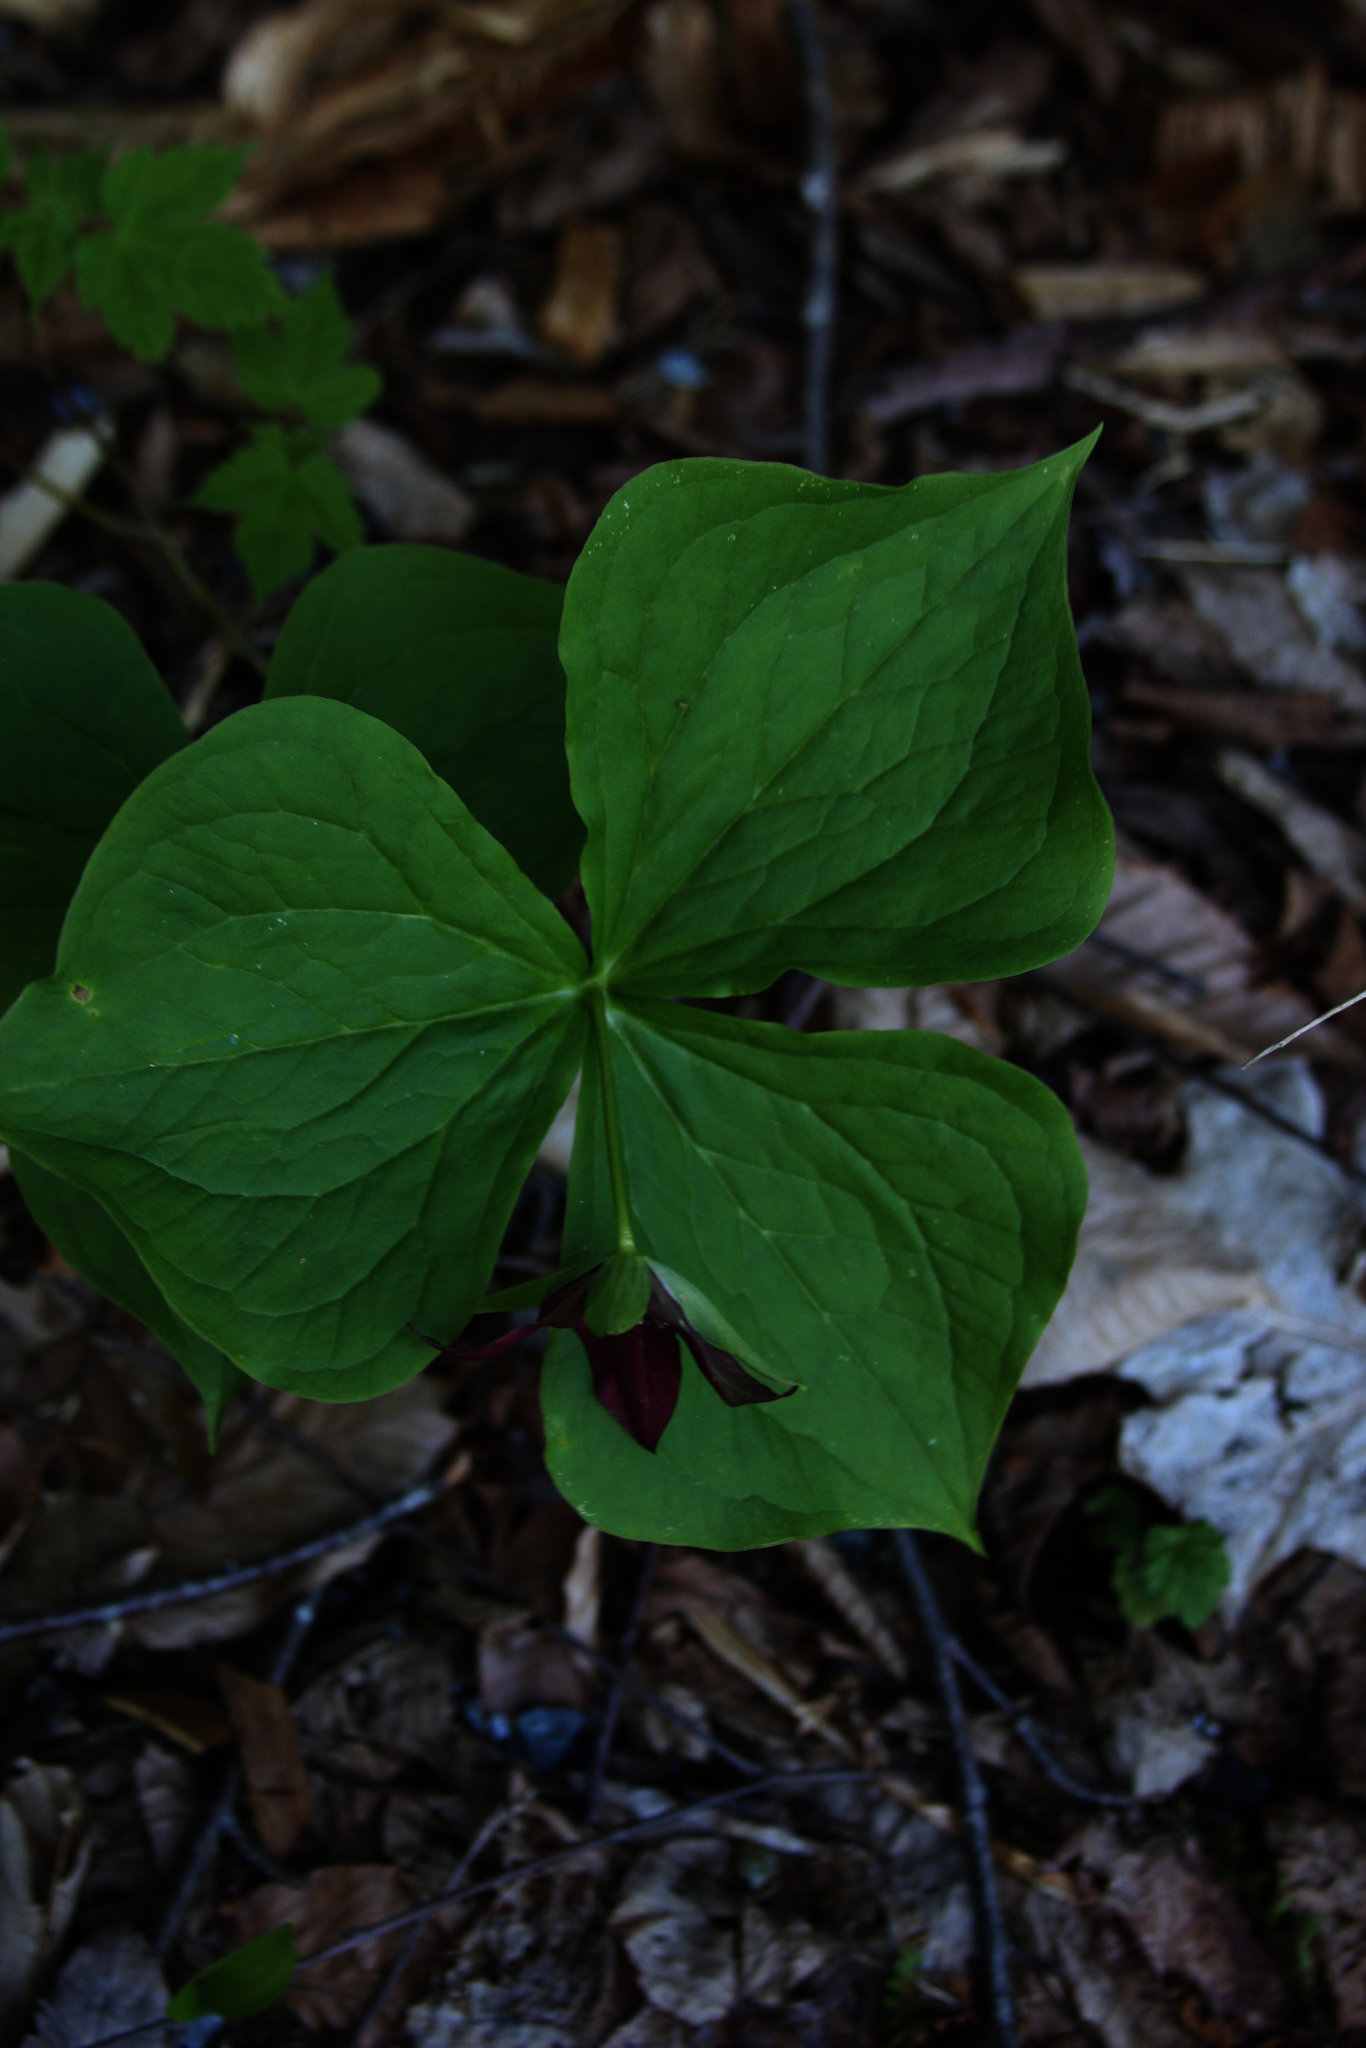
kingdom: Plantae
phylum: Tracheophyta
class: Liliopsida
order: Liliales
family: Melanthiaceae
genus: Trillium
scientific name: Trillium erectum
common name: Purple trillium
